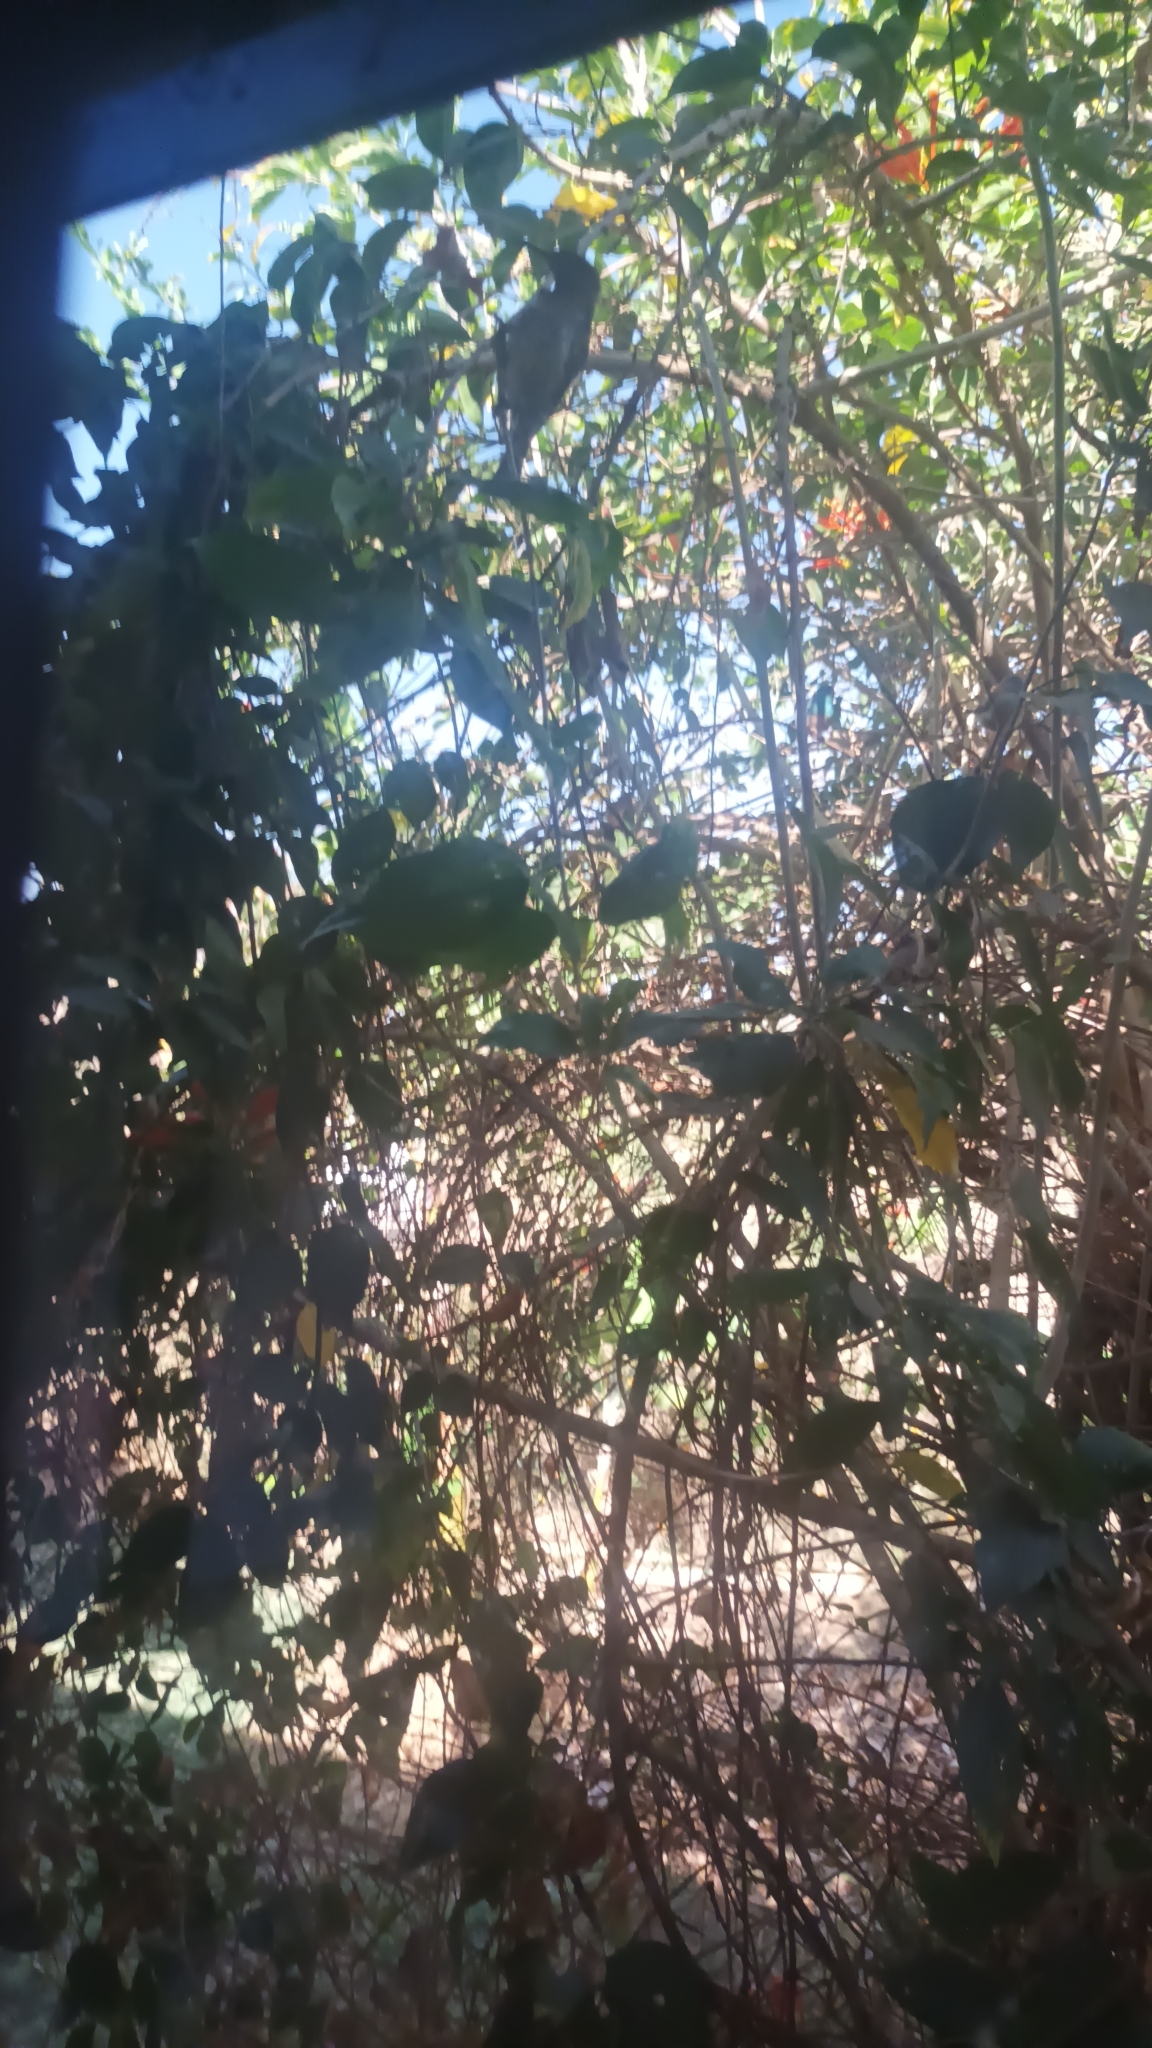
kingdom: Animalia
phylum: Chordata
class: Aves
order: Passeriformes
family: Nectariniidae
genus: Chalcomitra
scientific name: Chalcomitra senegalensis
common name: Scarlet-chested sunbird
